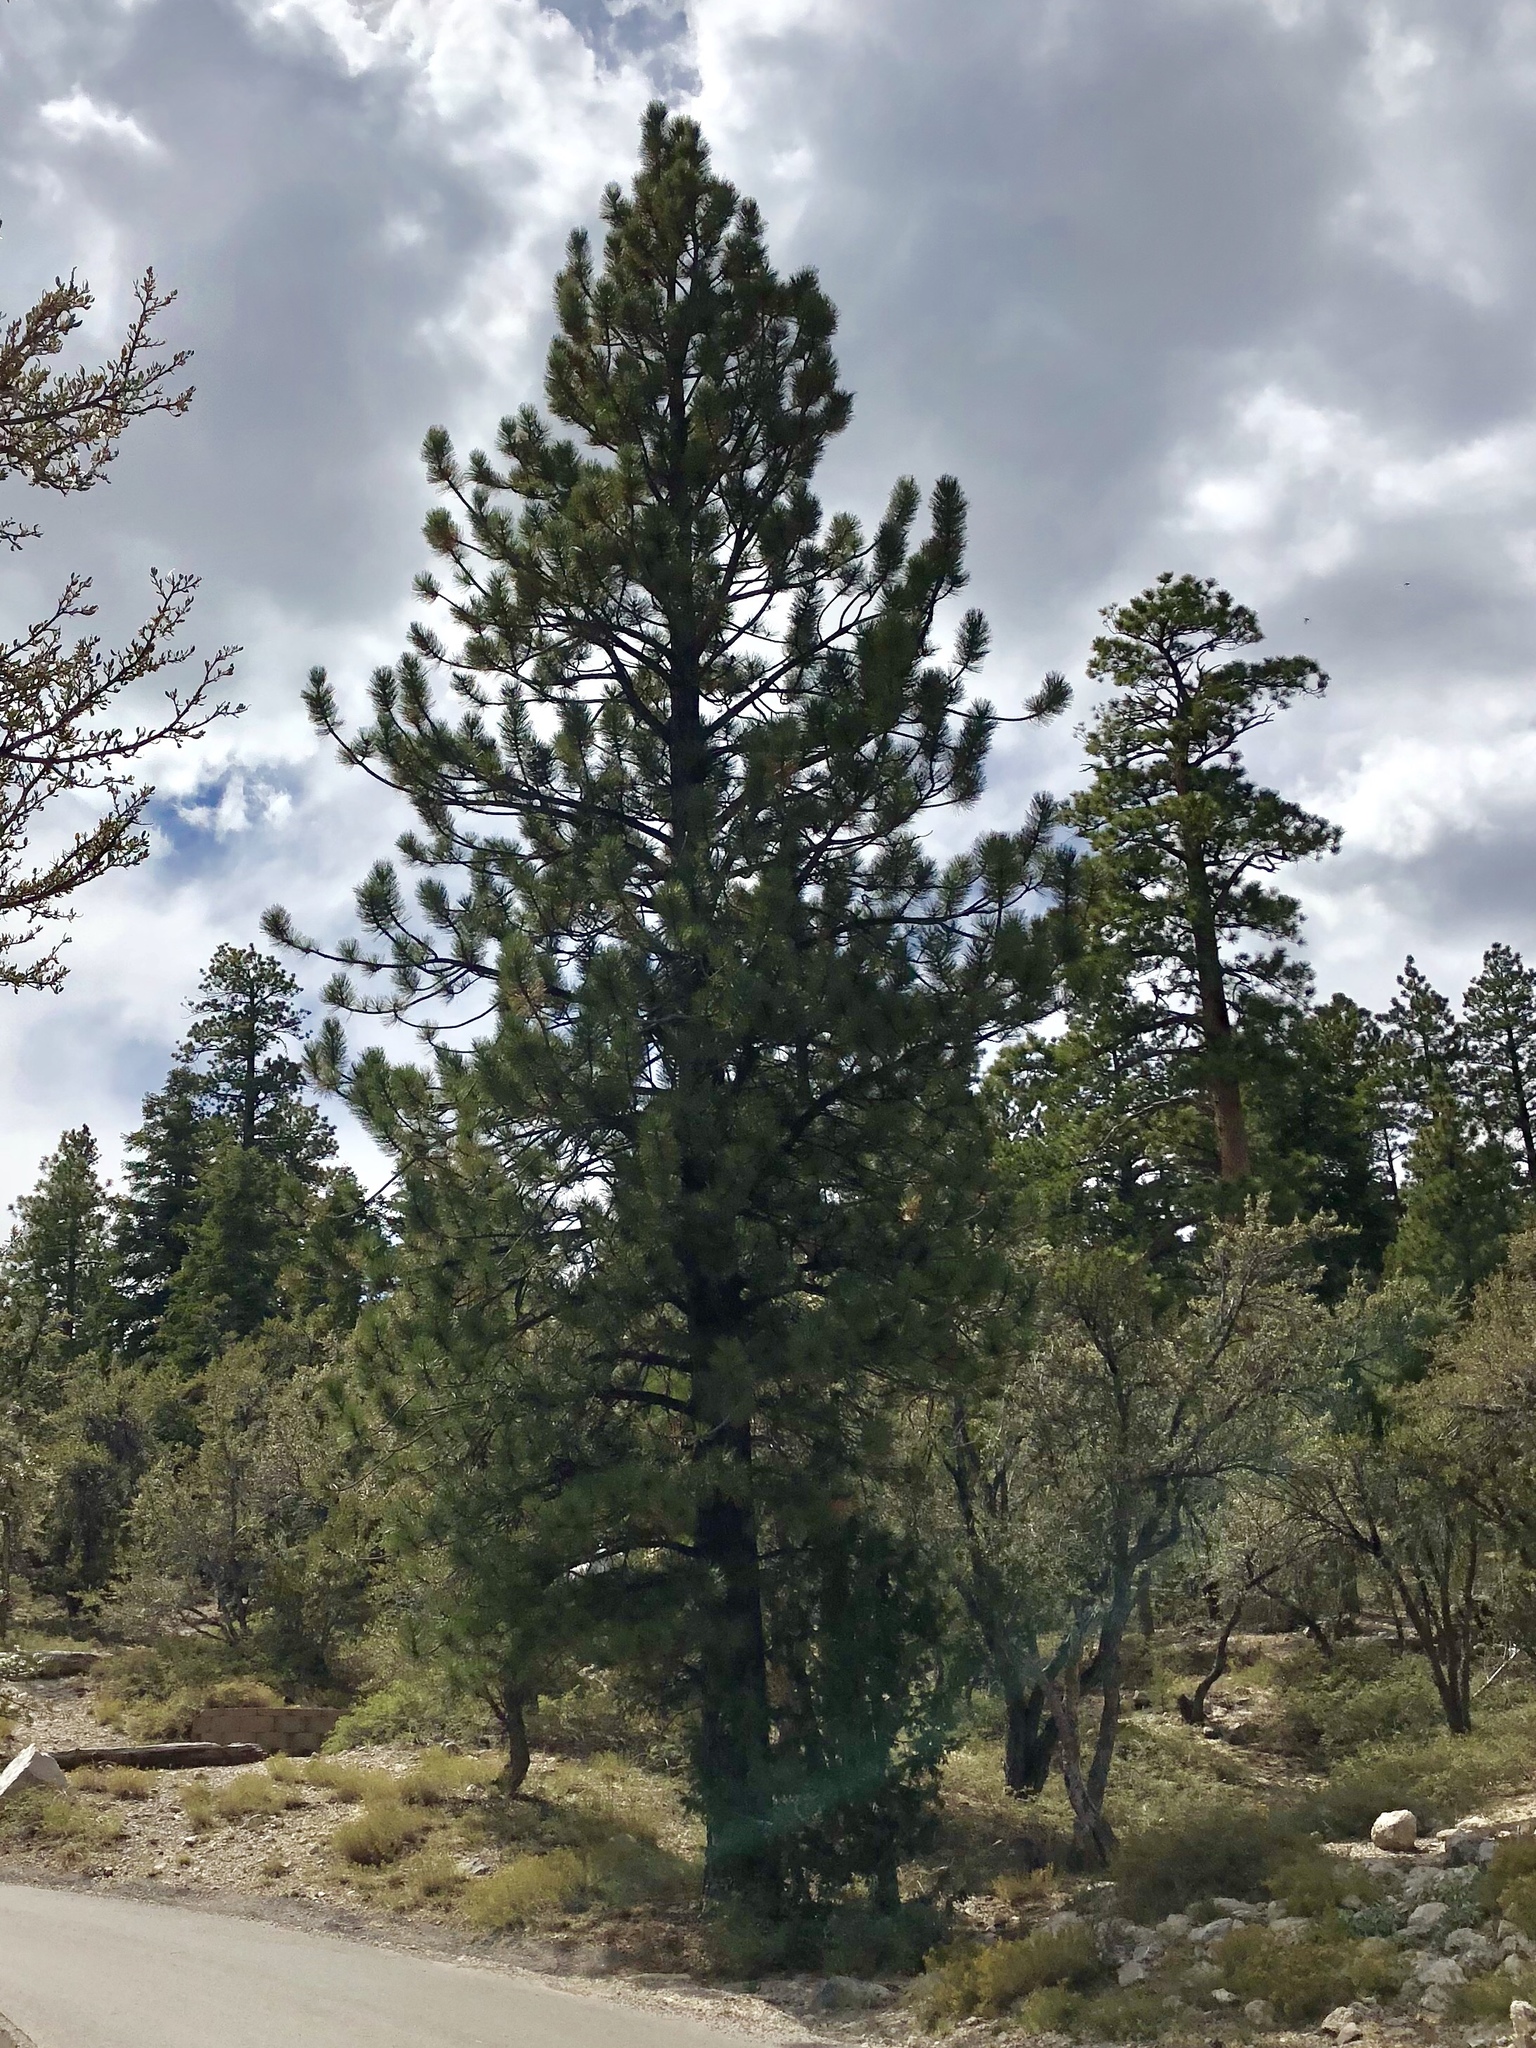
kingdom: Plantae
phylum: Tracheophyta
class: Pinopsida
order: Pinales
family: Pinaceae
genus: Pinus
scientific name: Pinus ponderosa
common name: Western yellow-pine
